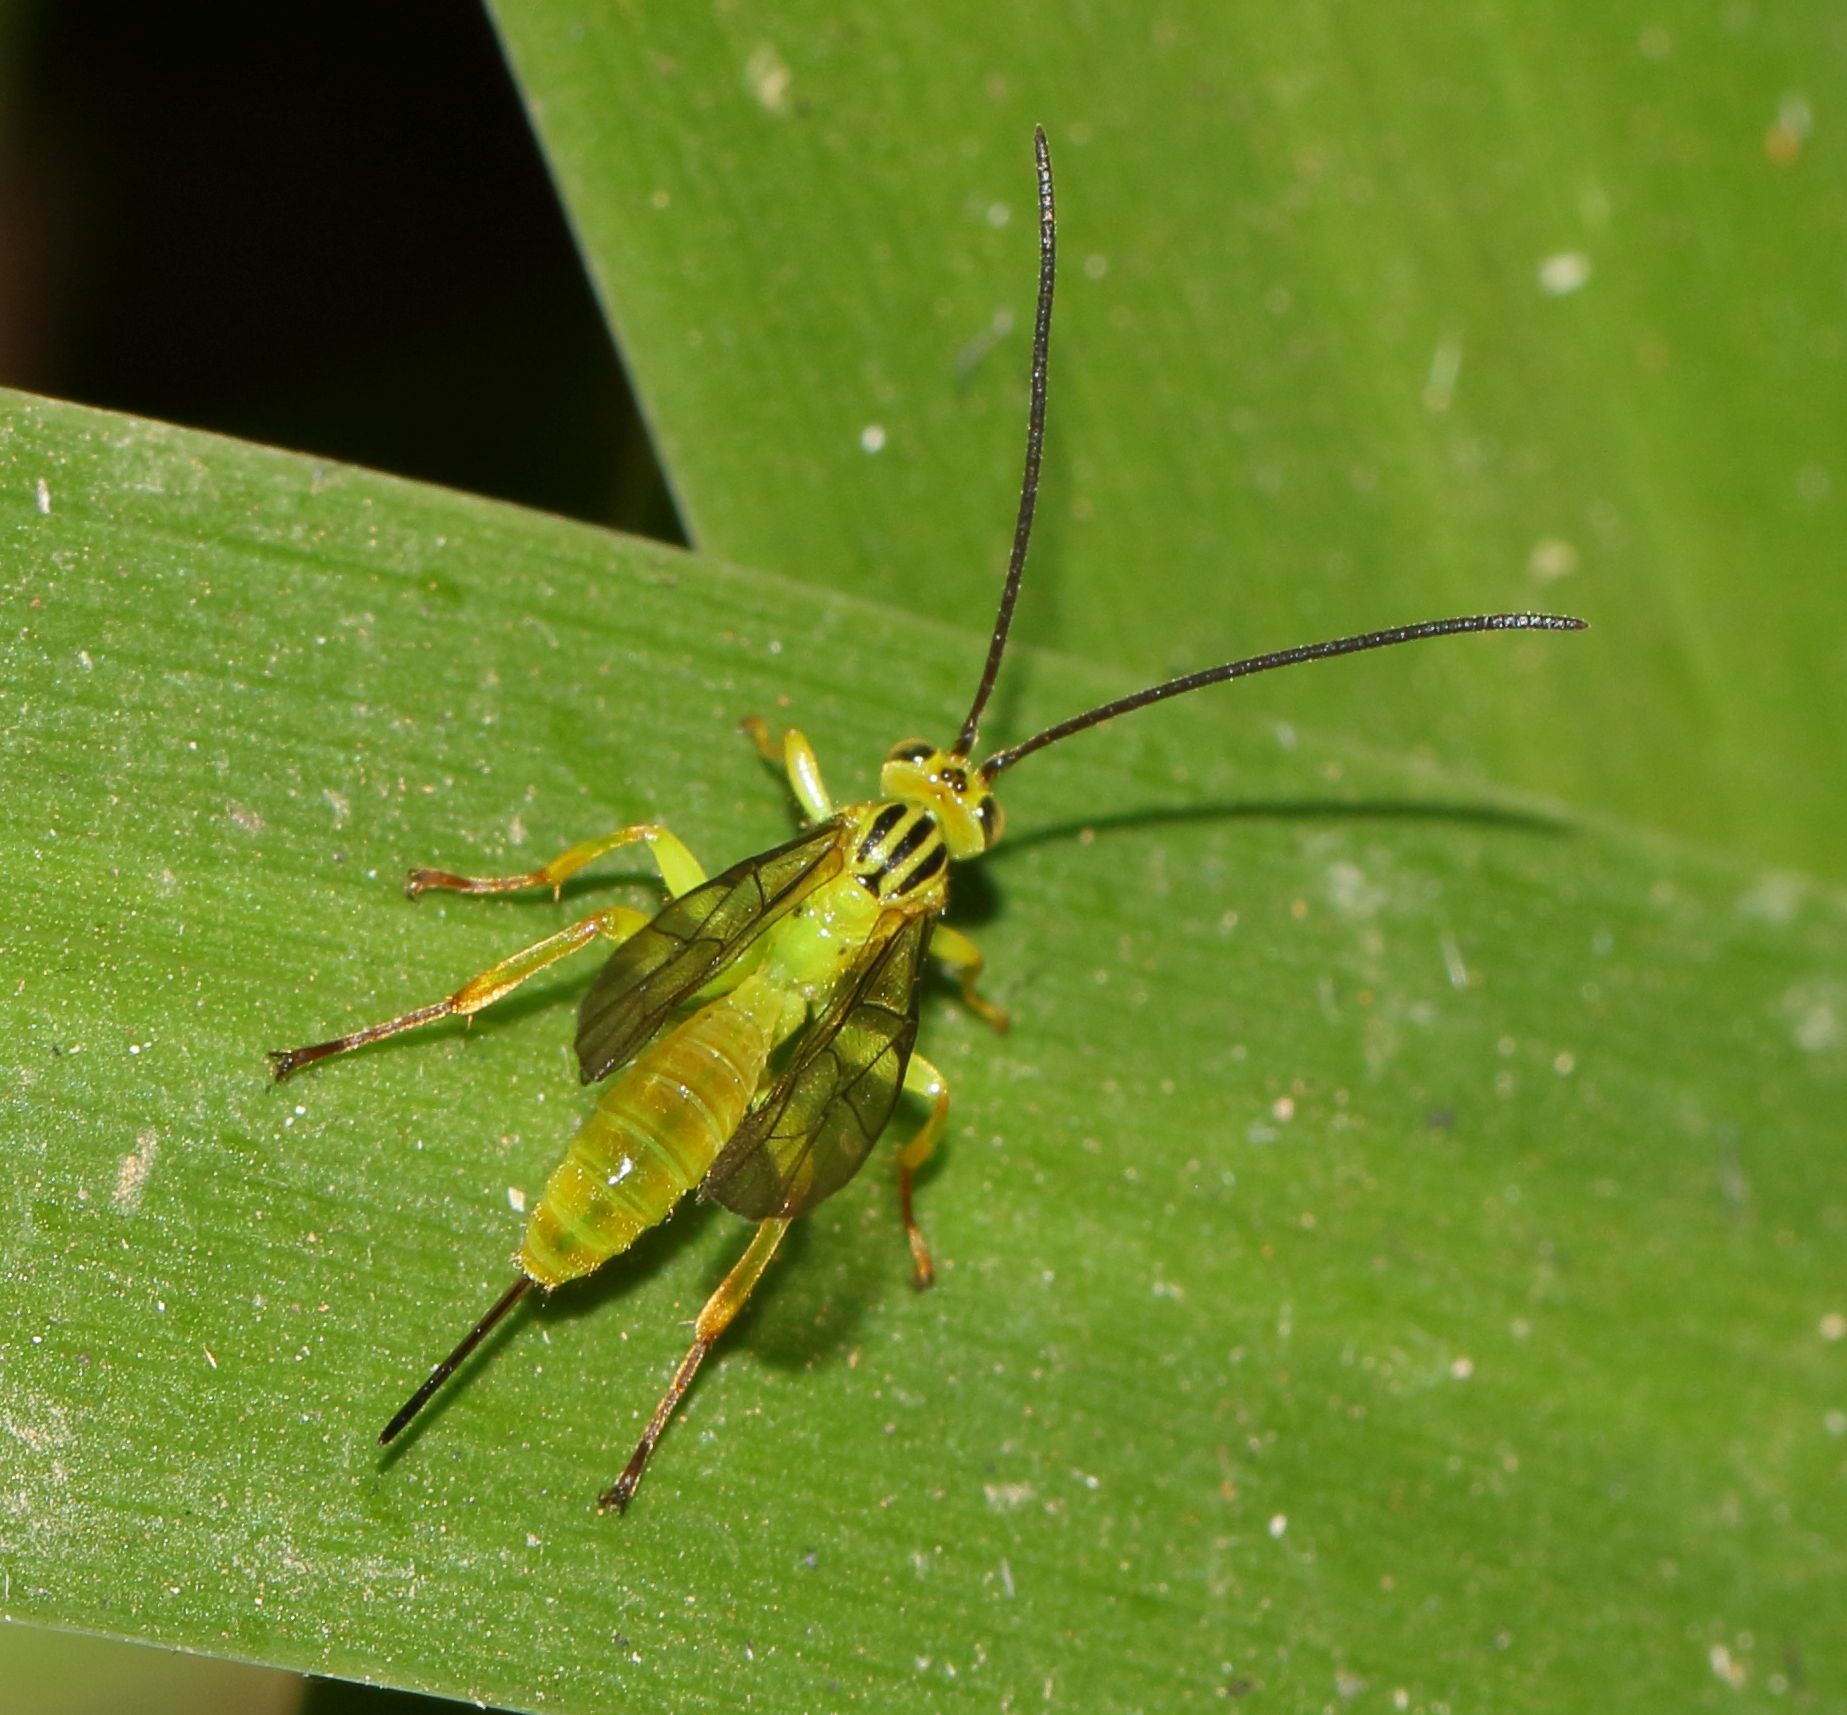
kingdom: Animalia
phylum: Arthropoda
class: Insecta
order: Hymenoptera
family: Ichneumonidae
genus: Theronia
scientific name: Theronia lurida
